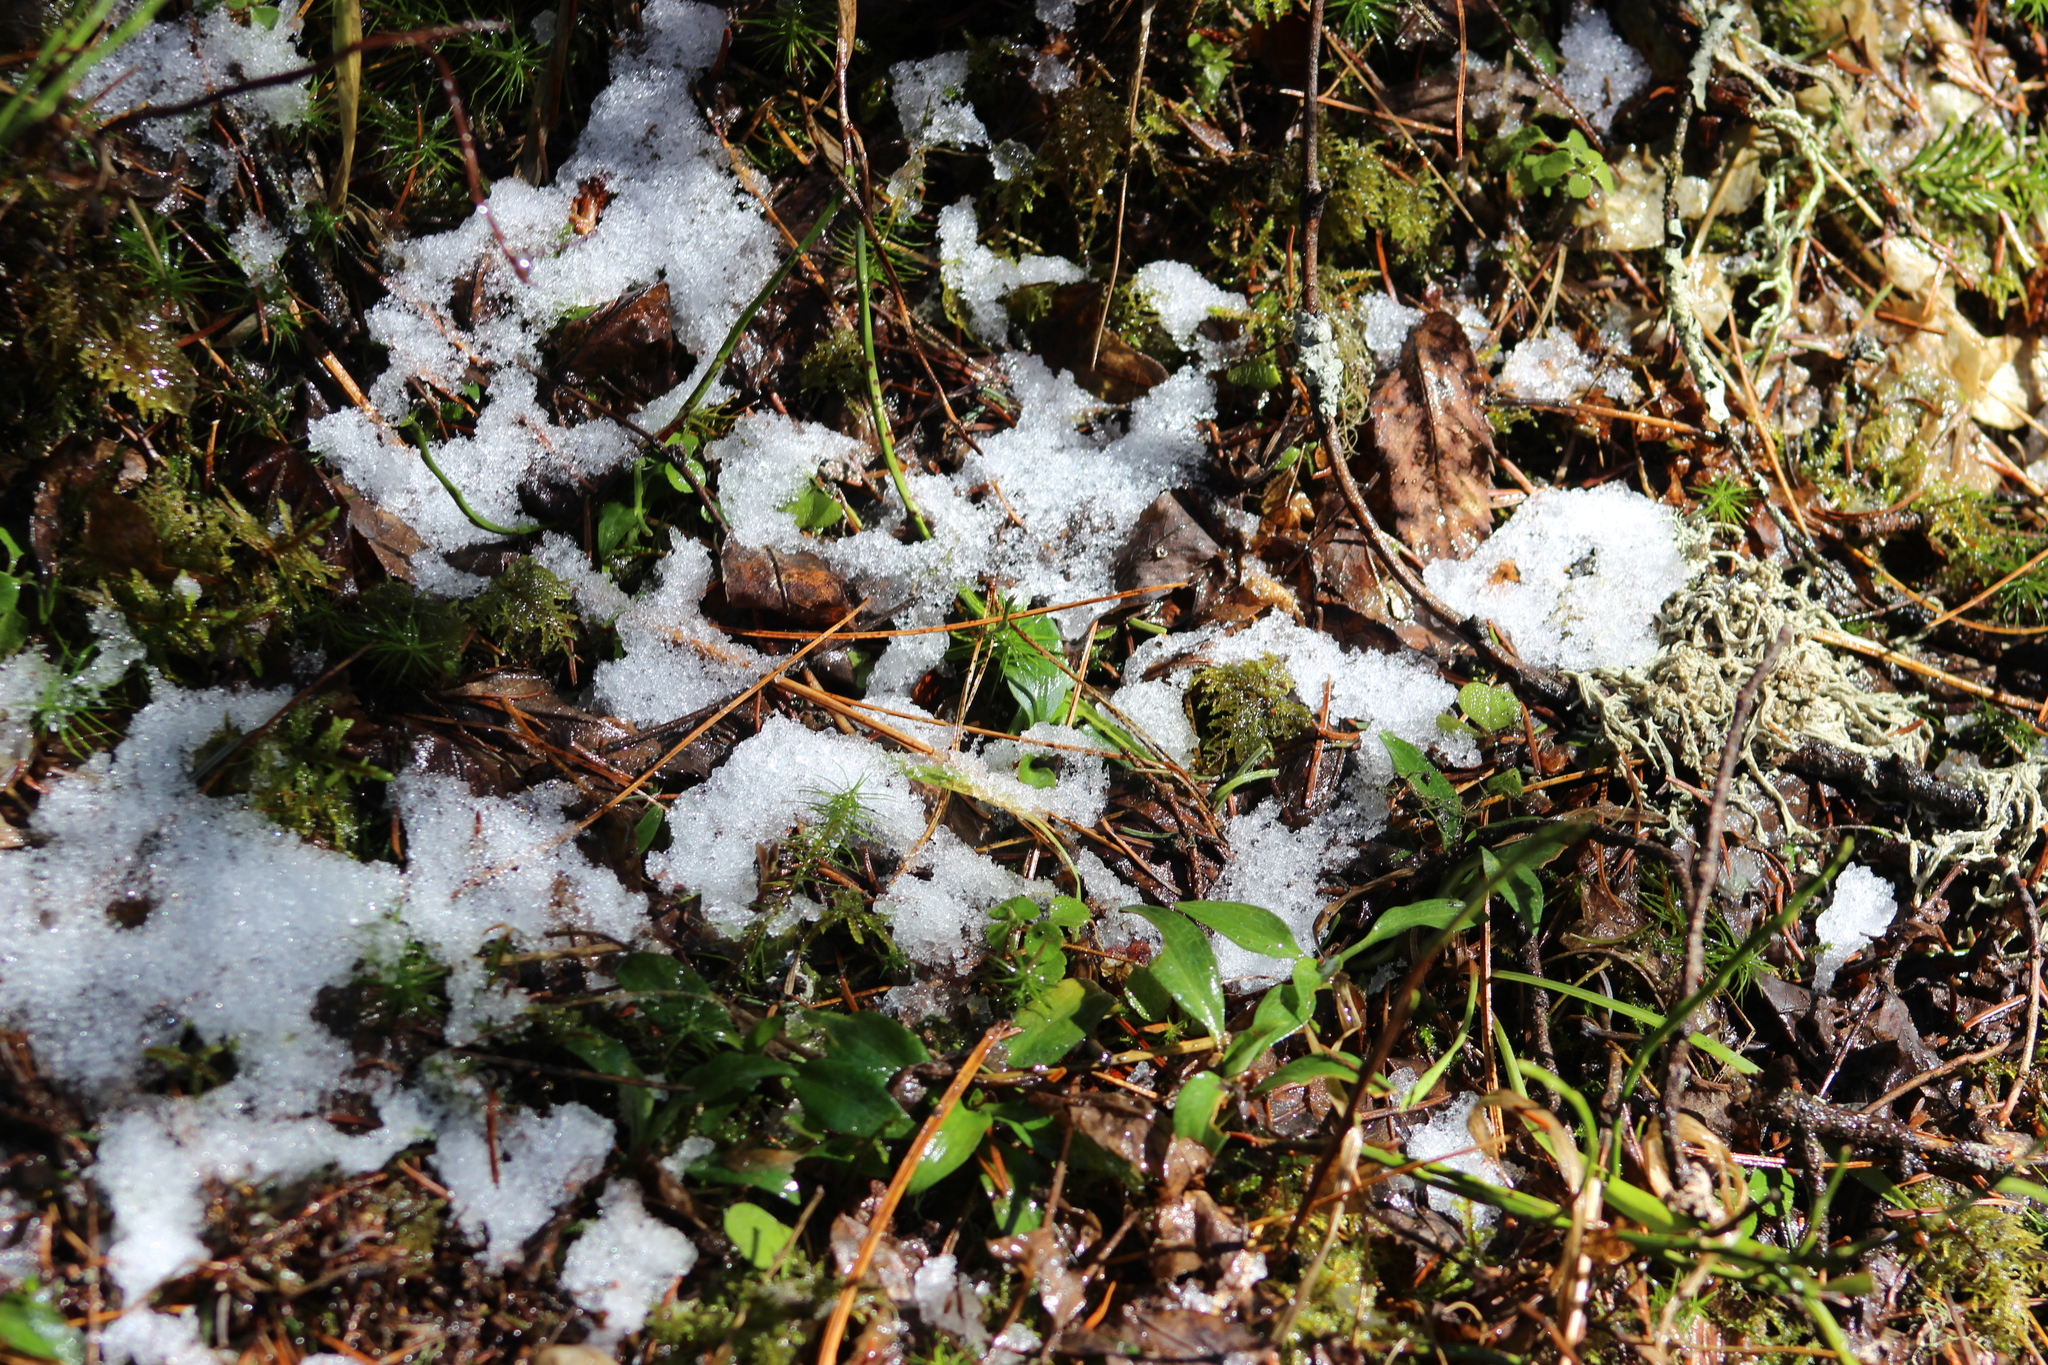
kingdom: Plantae
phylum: Tracheophyta
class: Liliopsida
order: Asparagales
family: Orchidaceae
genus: Goodyera
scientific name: Goodyera repens
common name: Creeping lady's-tresses
